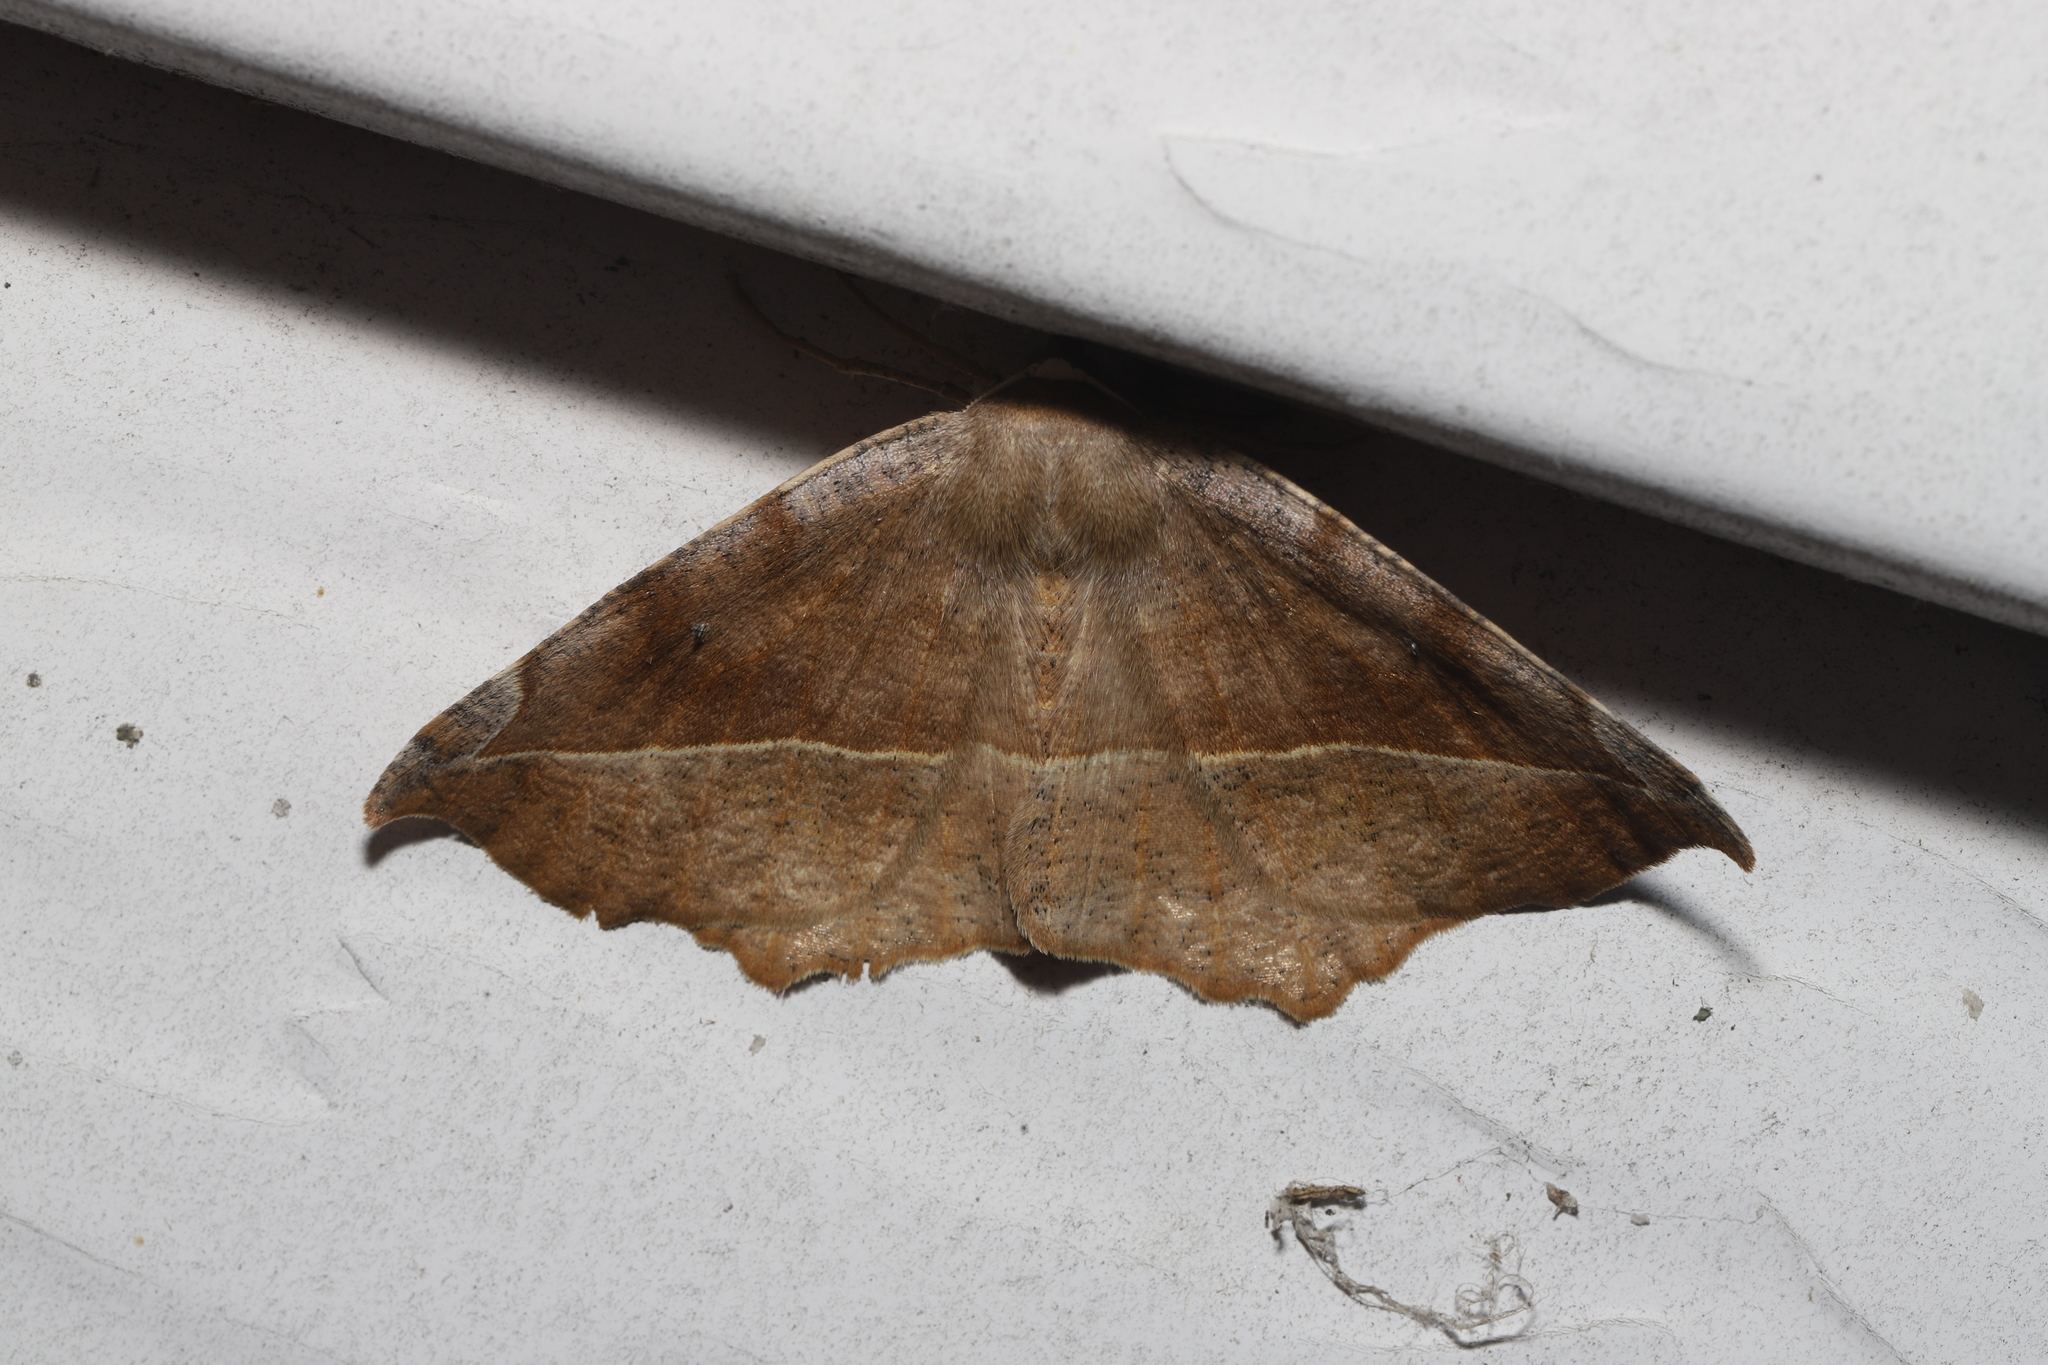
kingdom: Animalia
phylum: Arthropoda
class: Insecta
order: Lepidoptera
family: Geometridae
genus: Eutrapela
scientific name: Eutrapela clemataria
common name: Curved-toothed geometer
